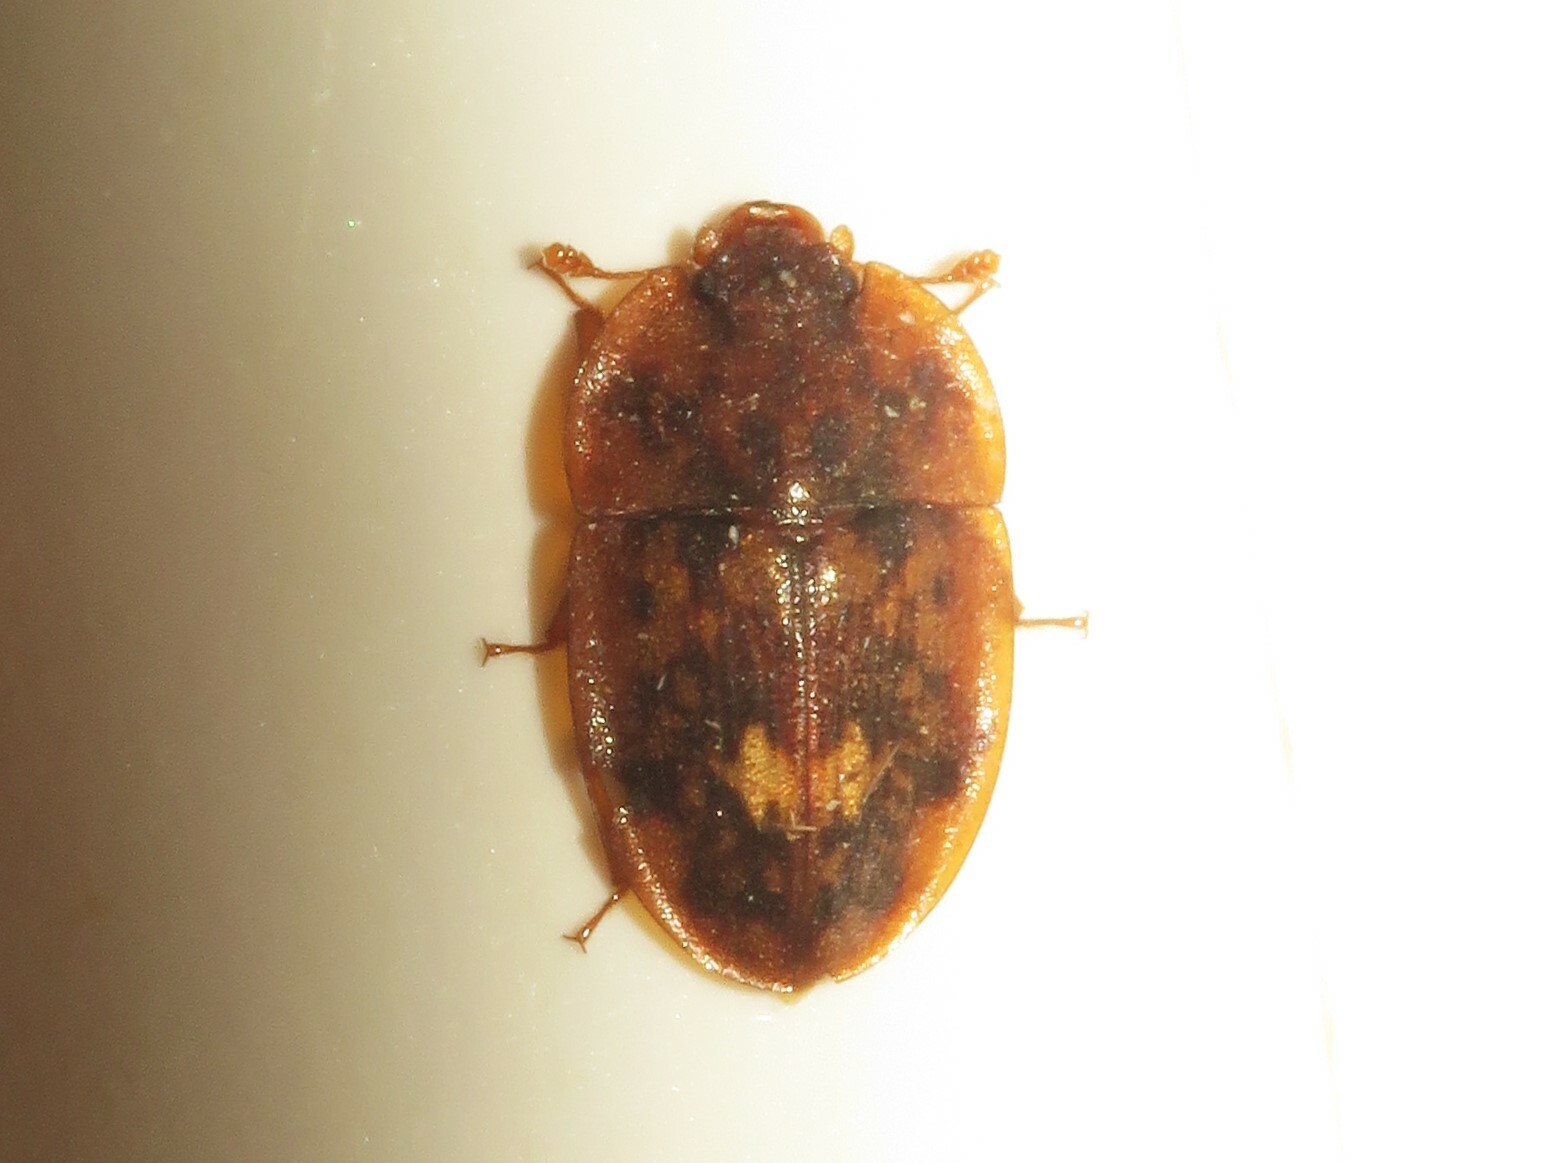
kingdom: Animalia
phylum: Arthropoda
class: Insecta
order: Coleoptera
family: Nitidulidae
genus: Lobiopa
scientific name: Lobiopa undulata
